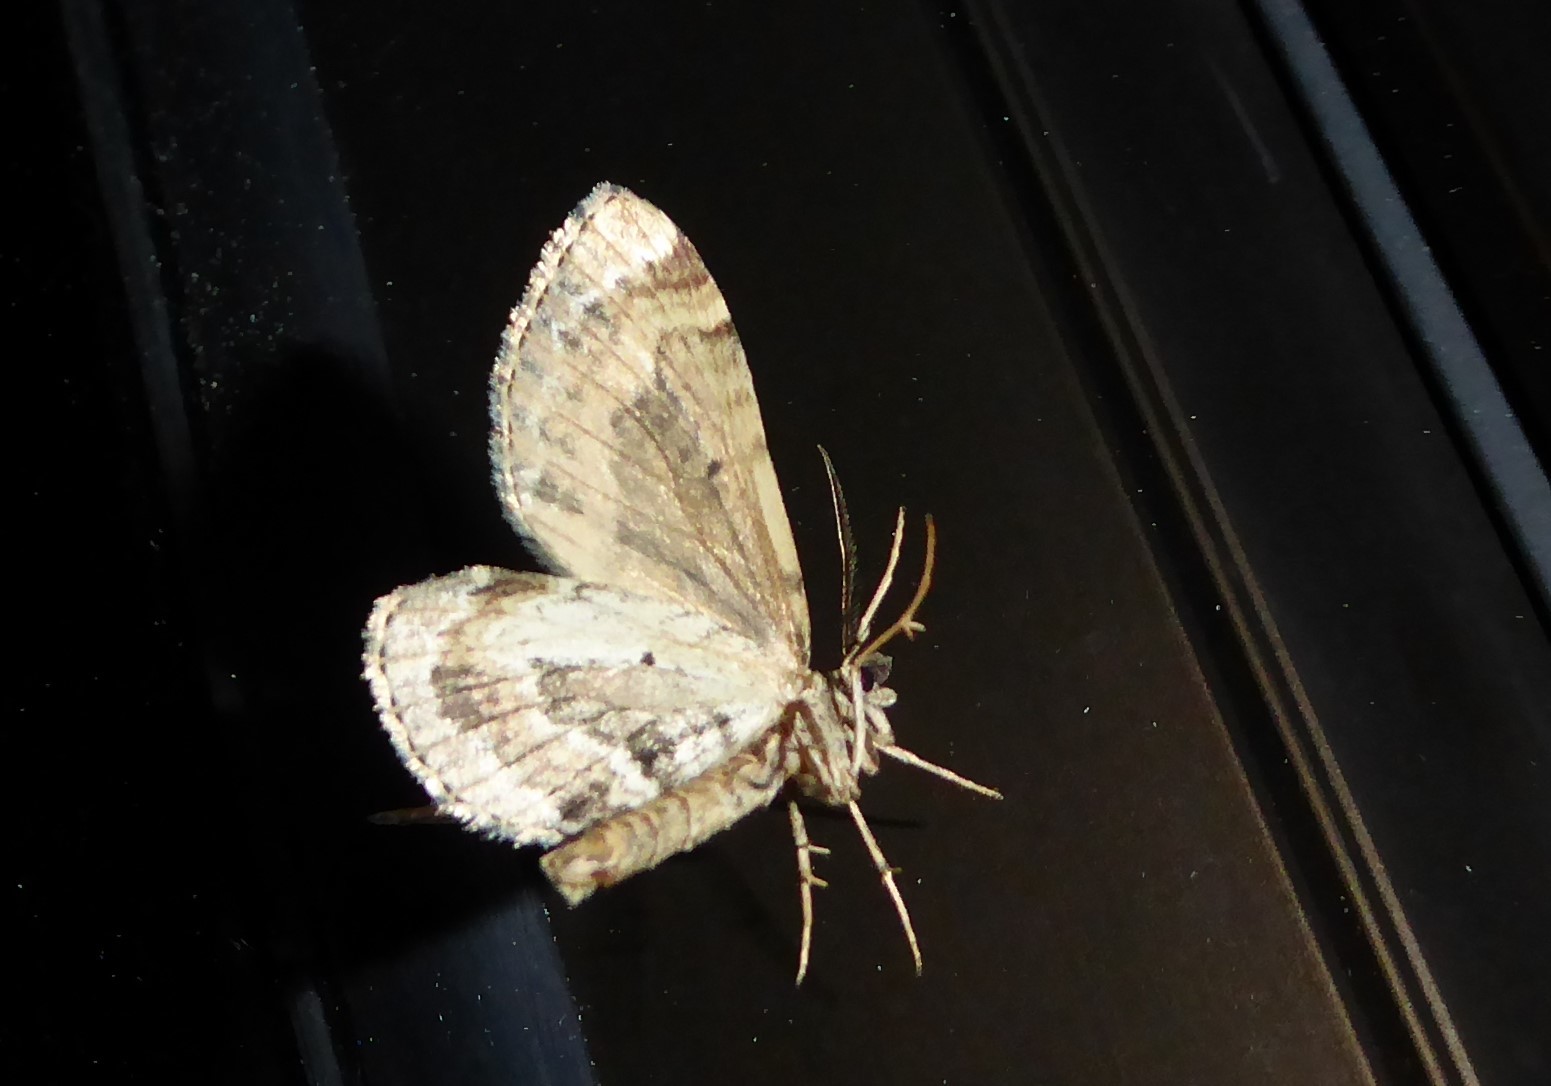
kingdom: Animalia
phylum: Arthropoda
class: Insecta
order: Lepidoptera
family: Geometridae
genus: Asaphodes
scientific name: Asaphodes aegrota
